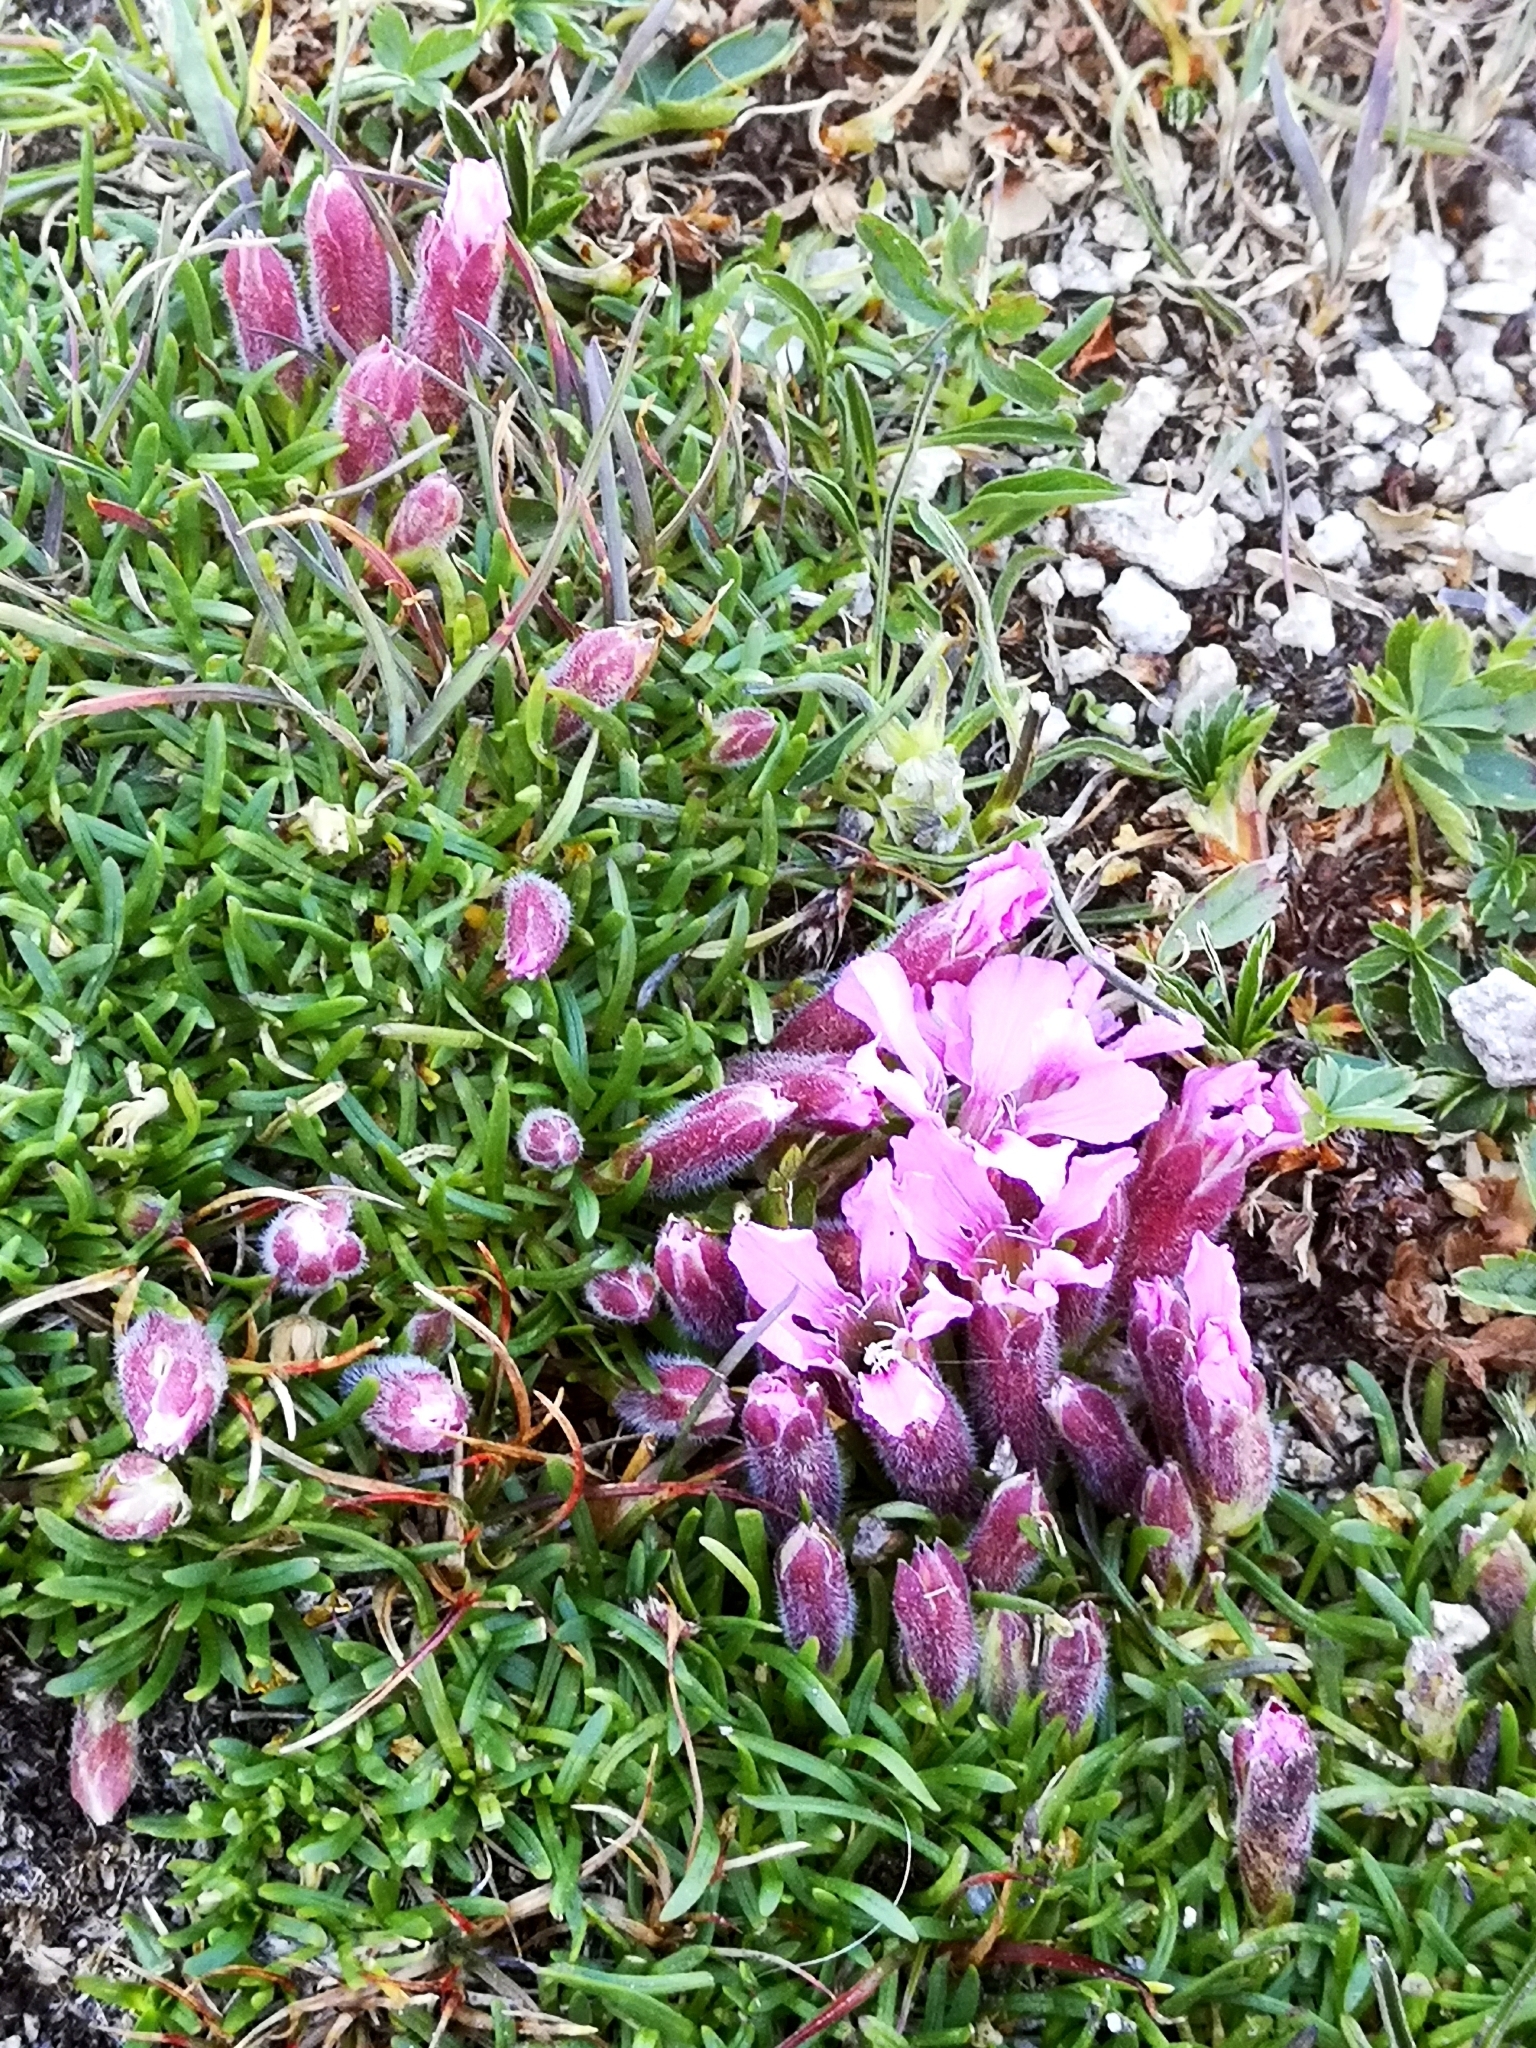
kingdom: Plantae
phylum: Tracheophyta
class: Magnoliopsida
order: Caryophyllales
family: Caryophyllaceae
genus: Saponaria
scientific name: Saponaria pumila
